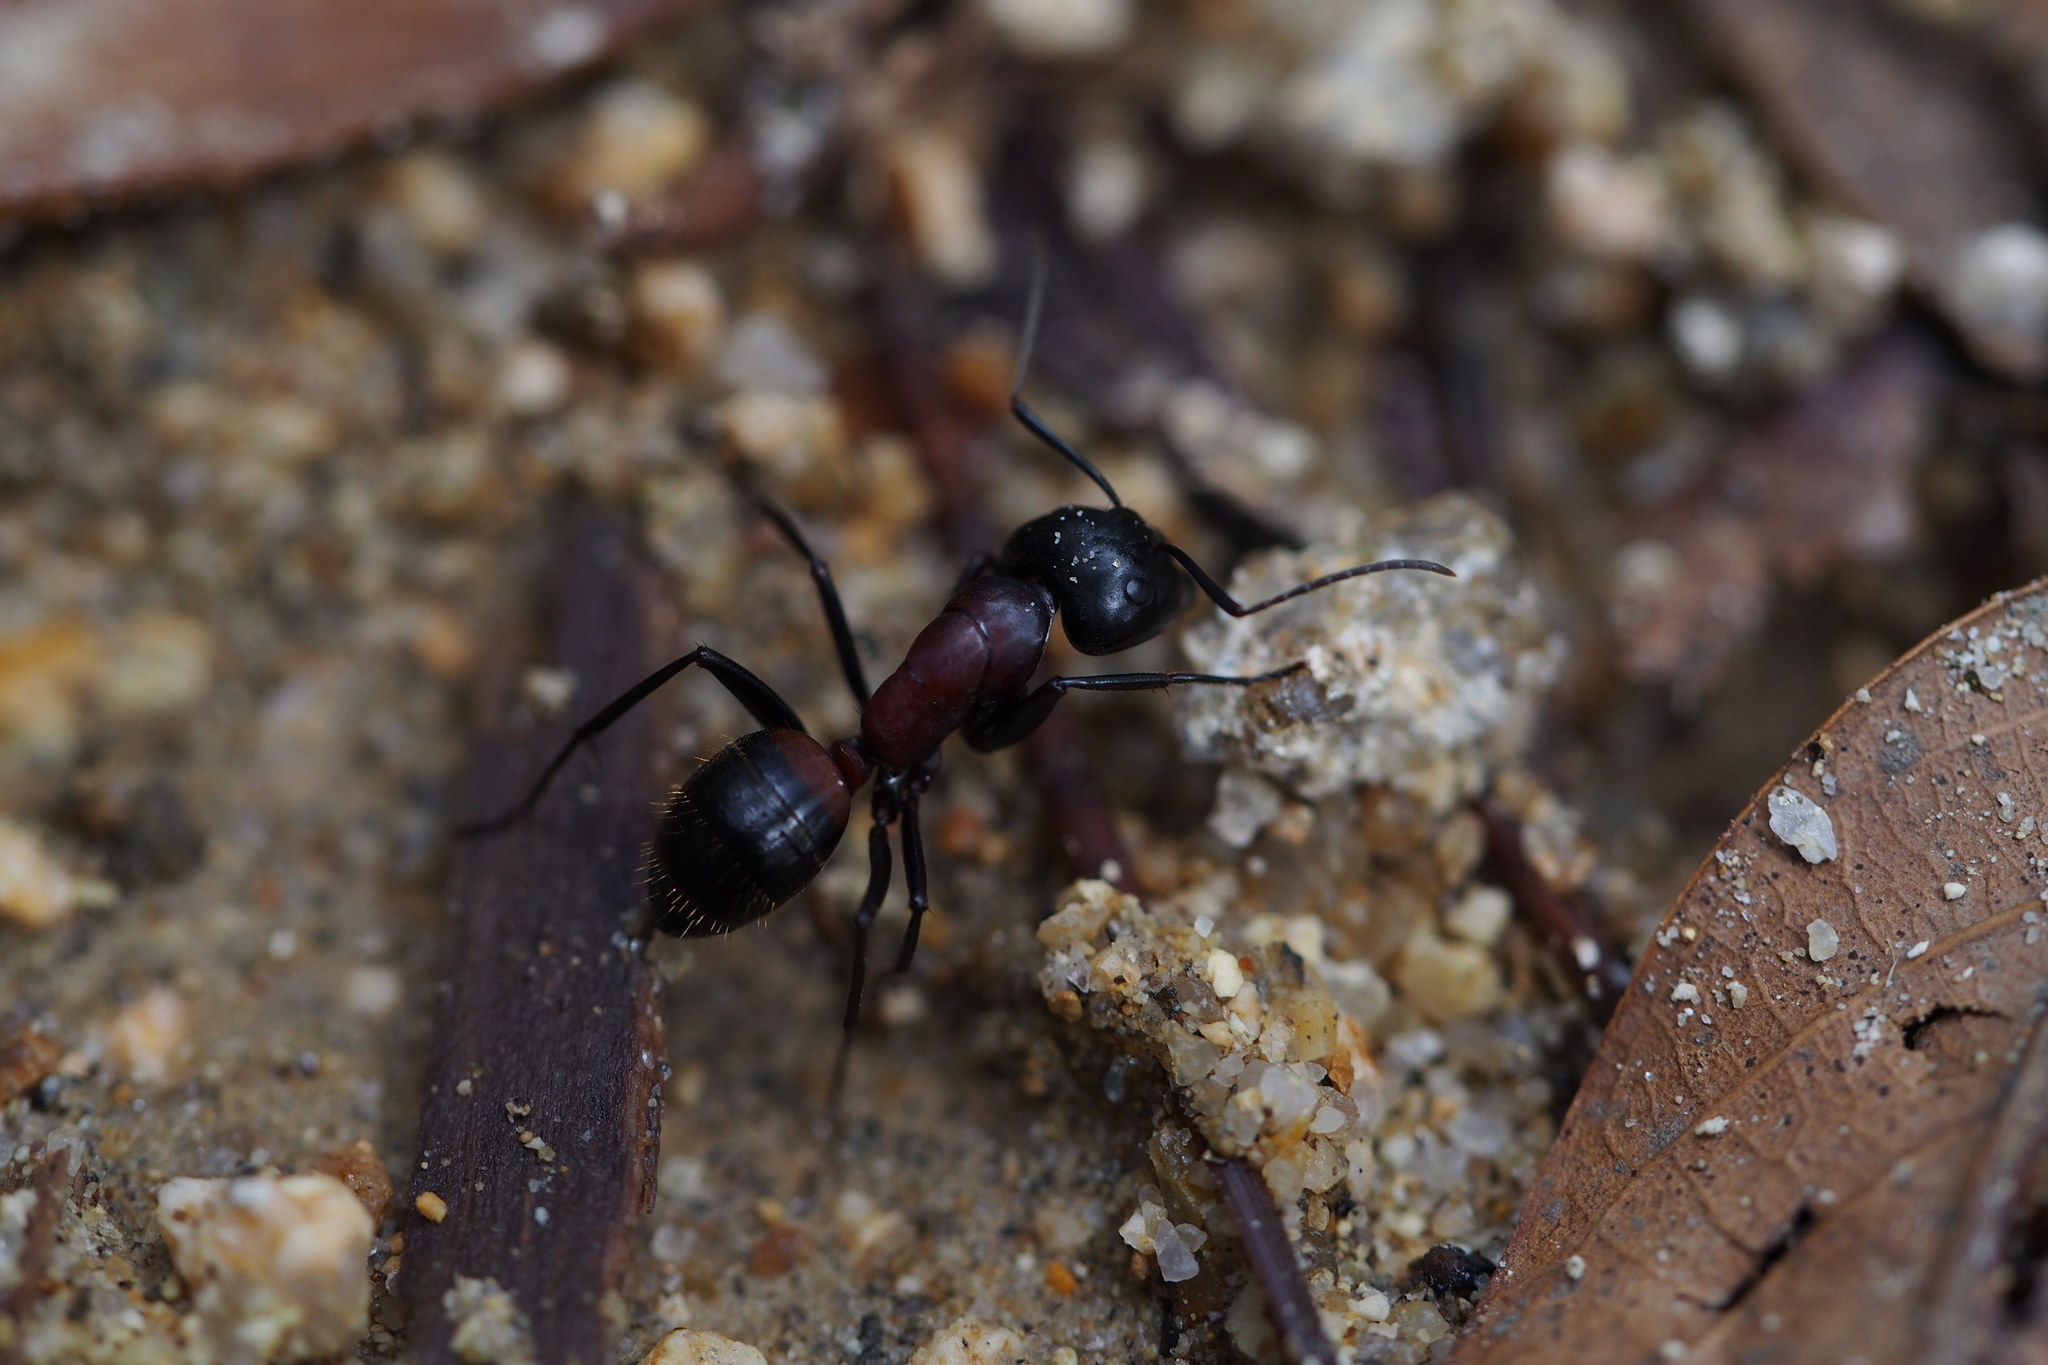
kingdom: Animalia
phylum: Arthropoda
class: Insecta
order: Hymenoptera
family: Formicidae
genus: Camponotus
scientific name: Camponotus obscuripes
